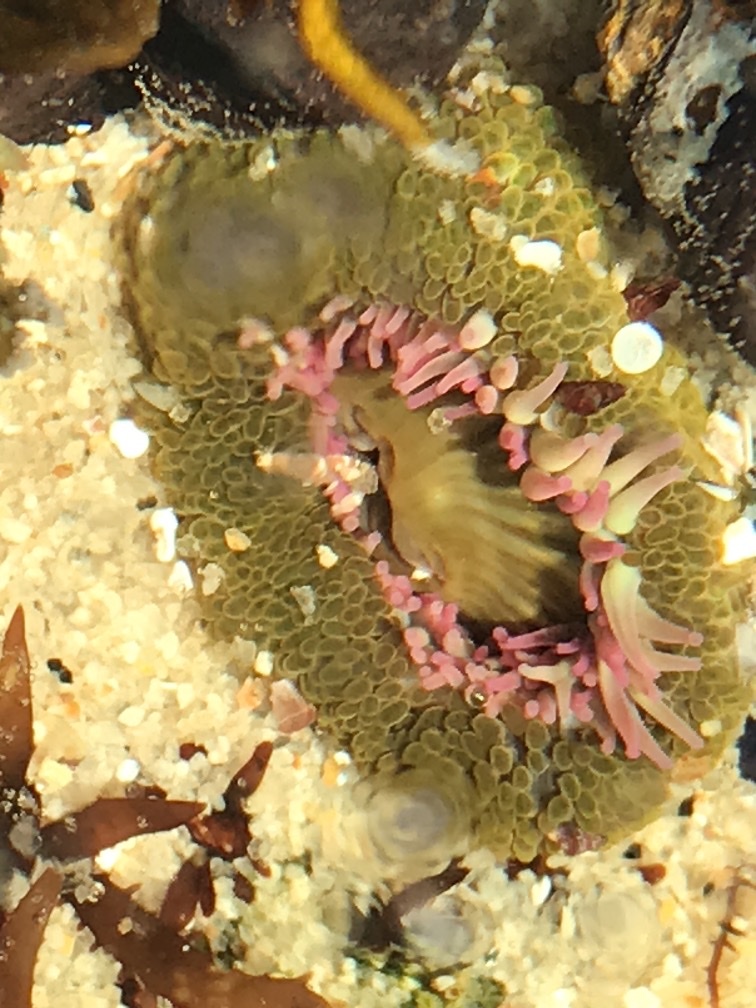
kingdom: Animalia
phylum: Cnidaria
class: Anthozoa
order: Actiniaria
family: Actiniidae
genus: Anthopleura
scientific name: Anthopleura elegantissima
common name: Clonal anemone
